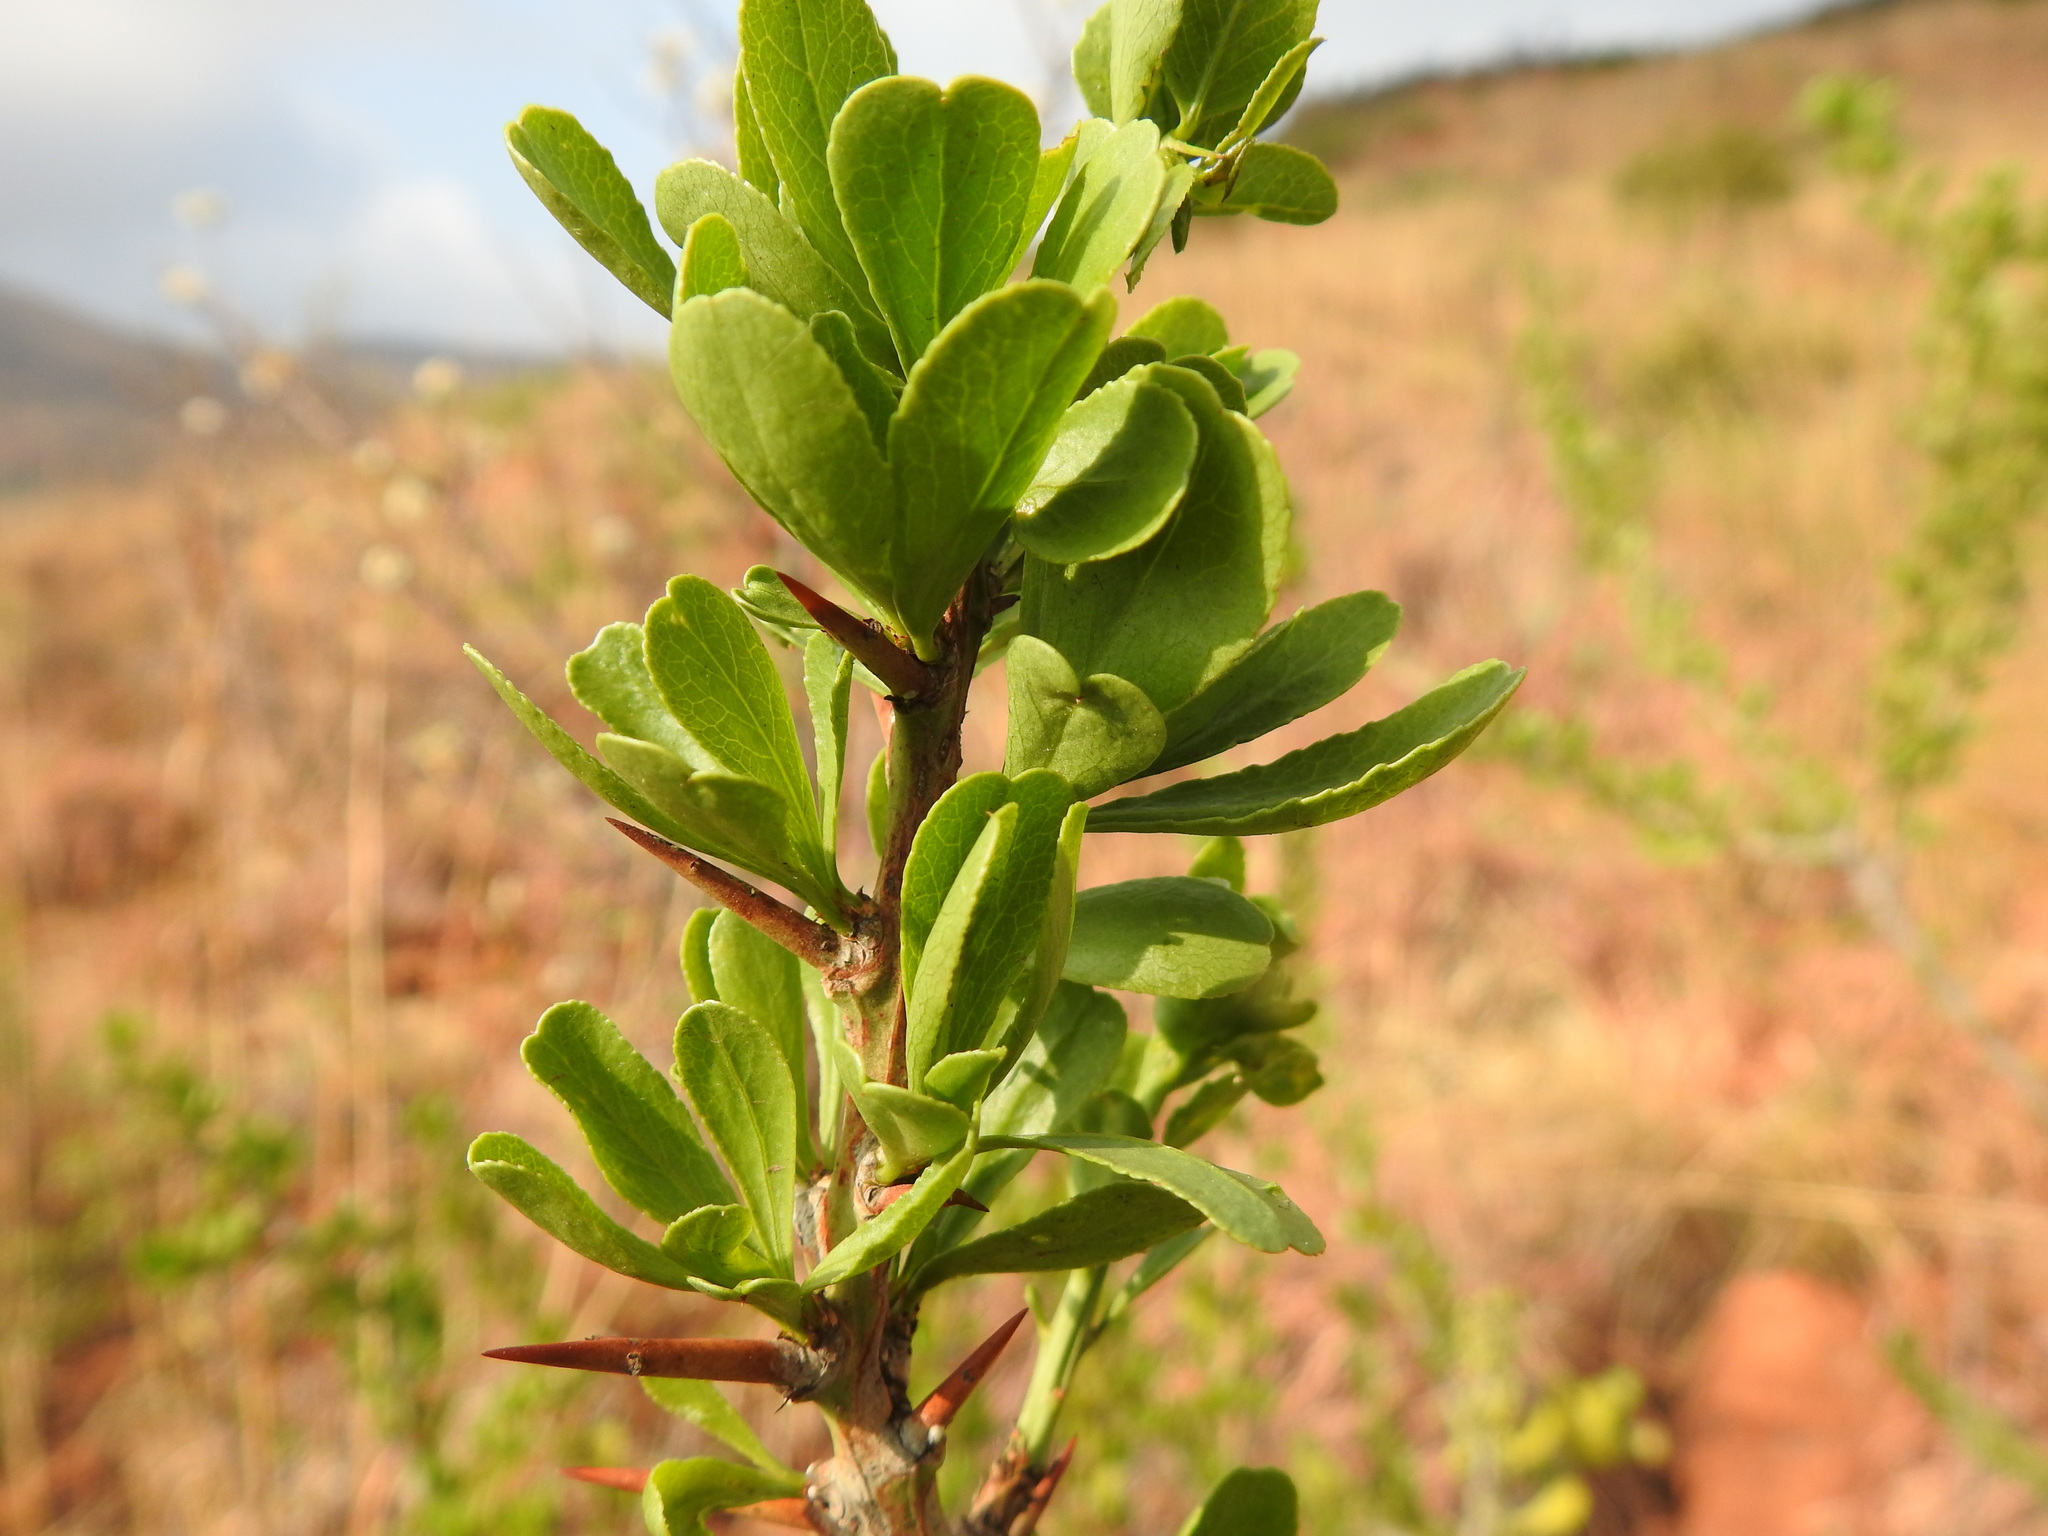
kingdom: Plantae
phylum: Tracheophyta
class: Magnoliopsida
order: Celastrales
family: Celastraceae
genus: Gymnosporia
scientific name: Gymnosporia buxifolia
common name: Common spike-thorn
